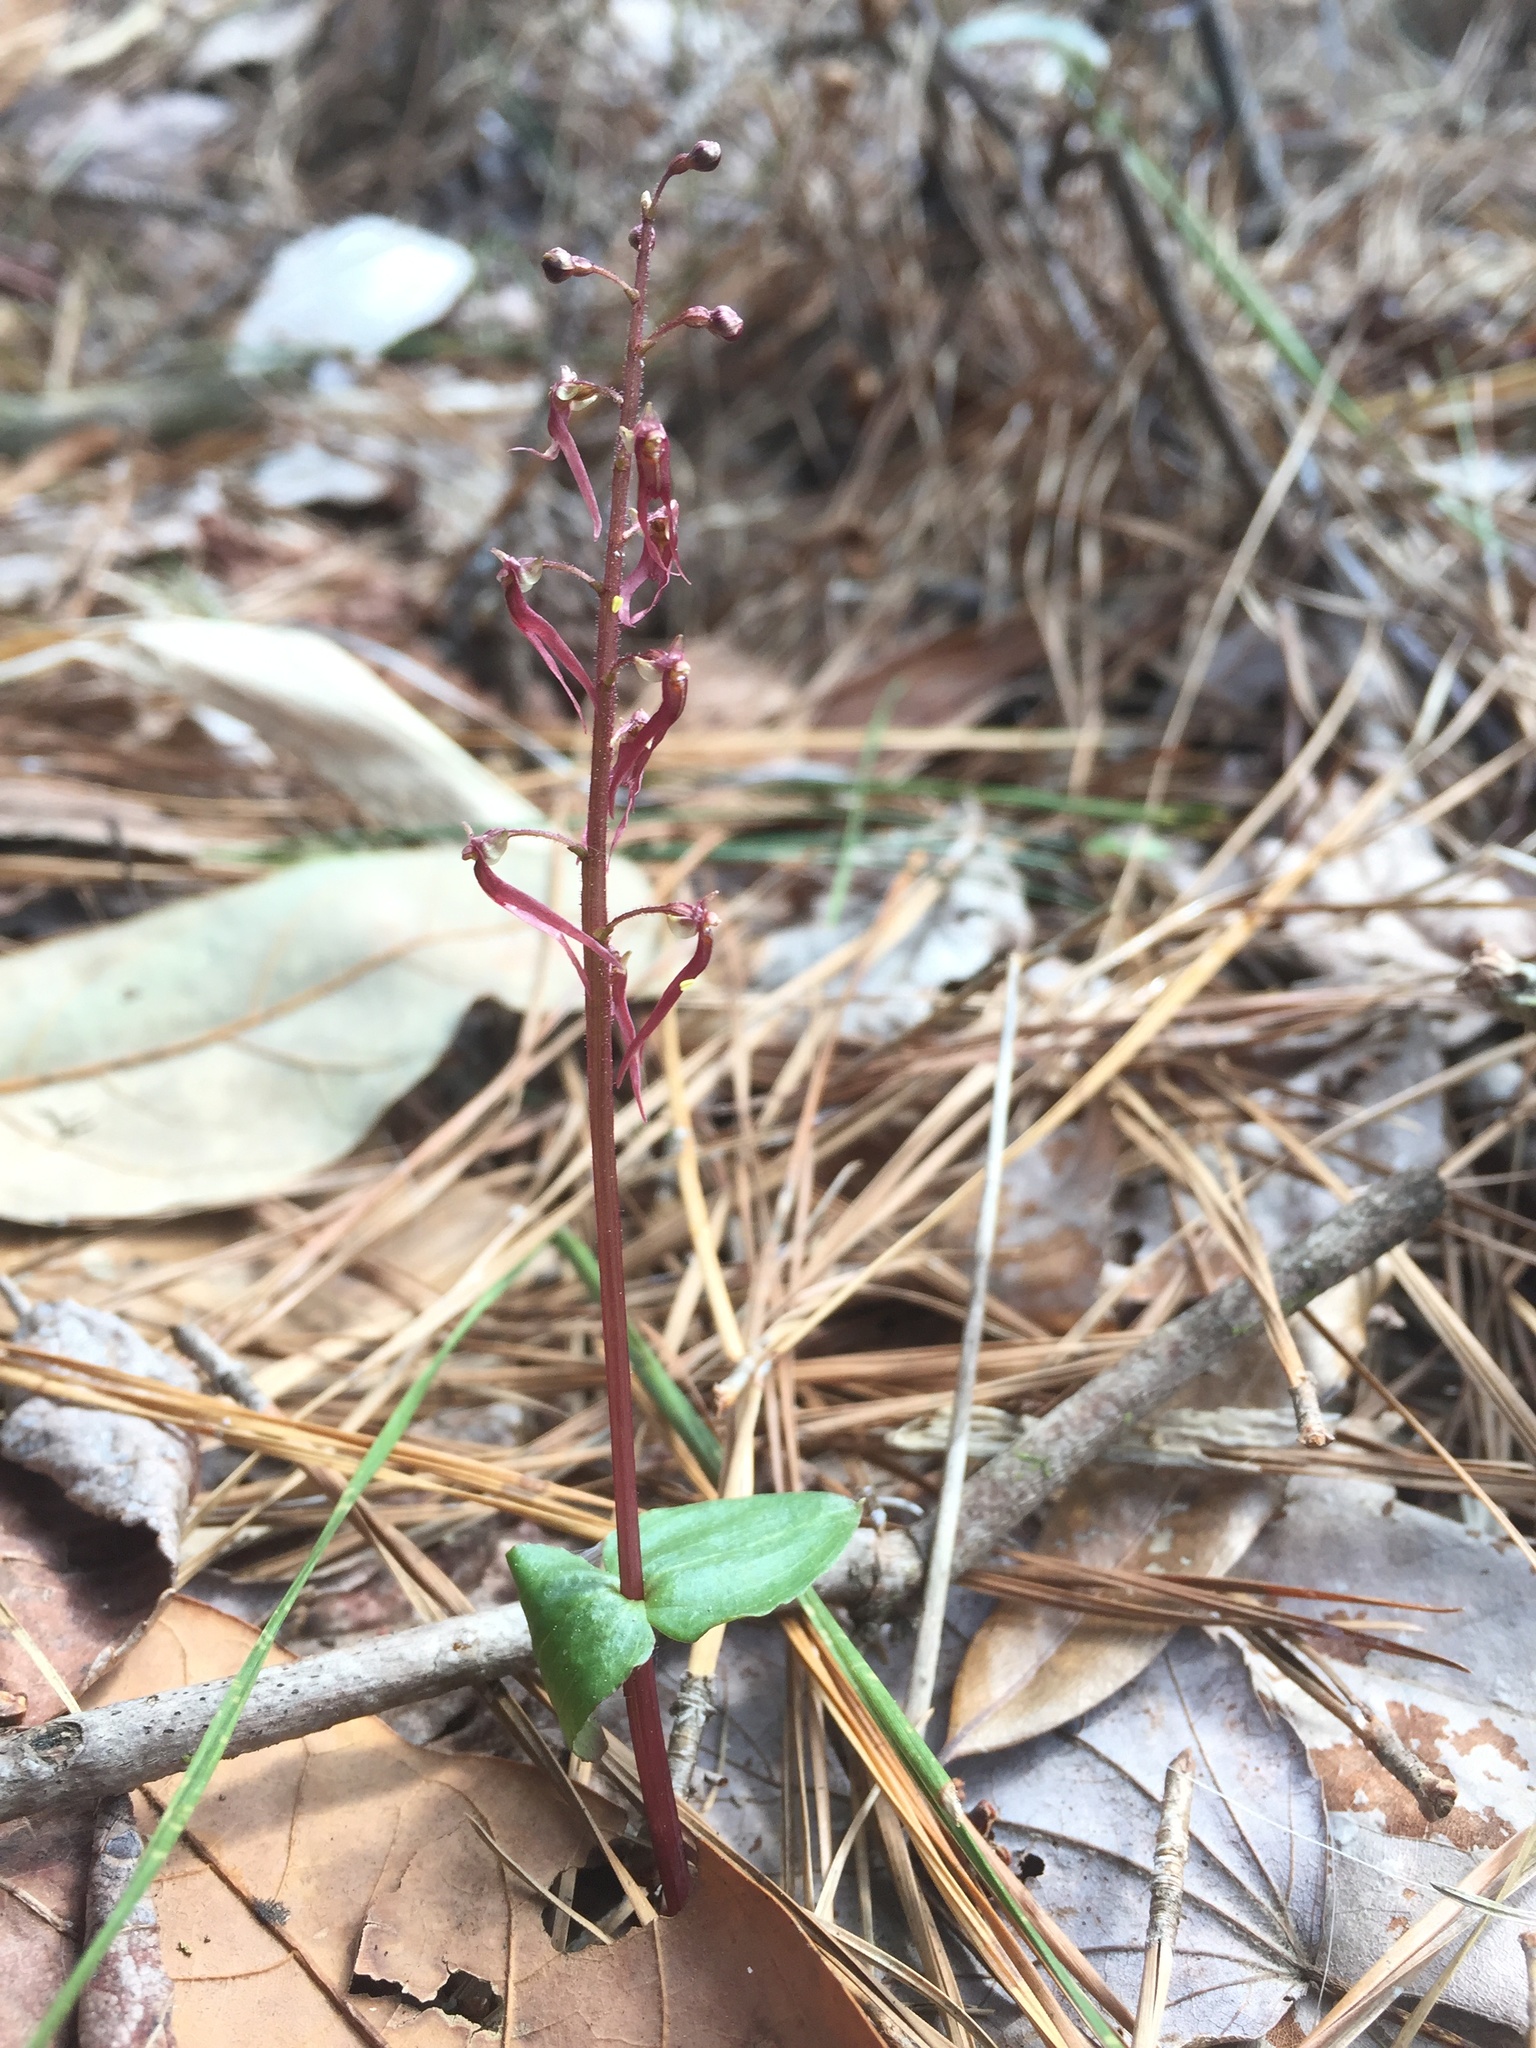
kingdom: Plantae
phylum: Tracheophyta
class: Liliopsida
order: Asparagales
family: Orchidaceae
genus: Neottia
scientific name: Neottia bifolia
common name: Southern twayblade
